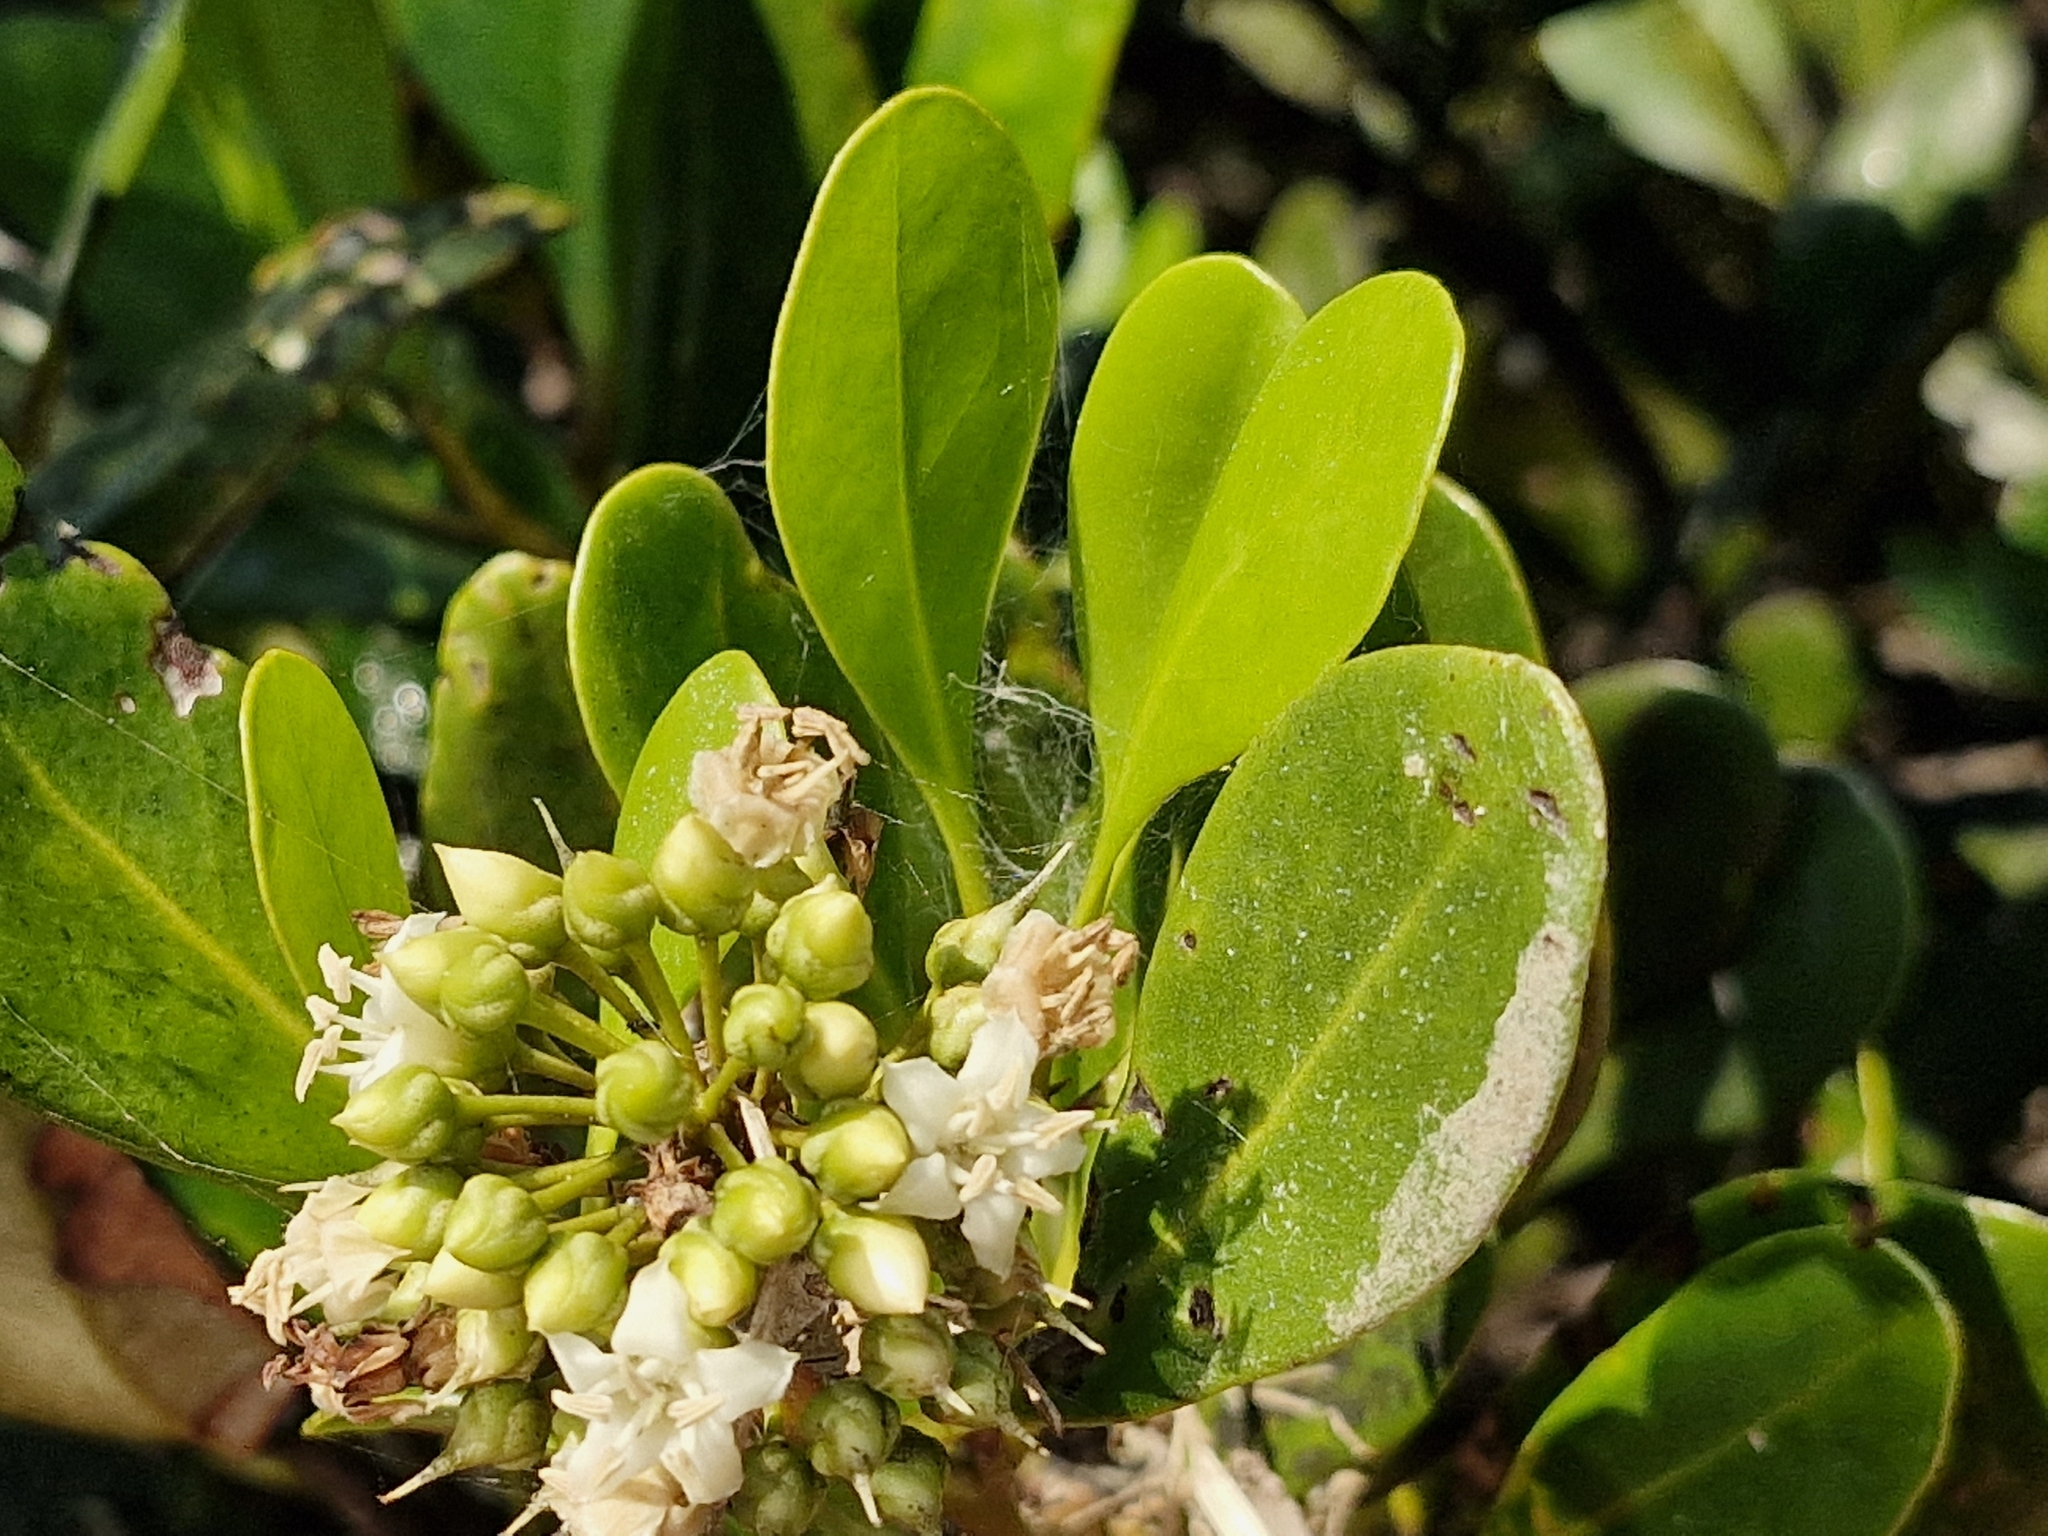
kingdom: Plantae
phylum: Tracheophyta
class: Magnoliopsida
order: Ericales
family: Primulaceae
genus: Aegiceras
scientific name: Aegiceras corniculatum
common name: River mangrove
